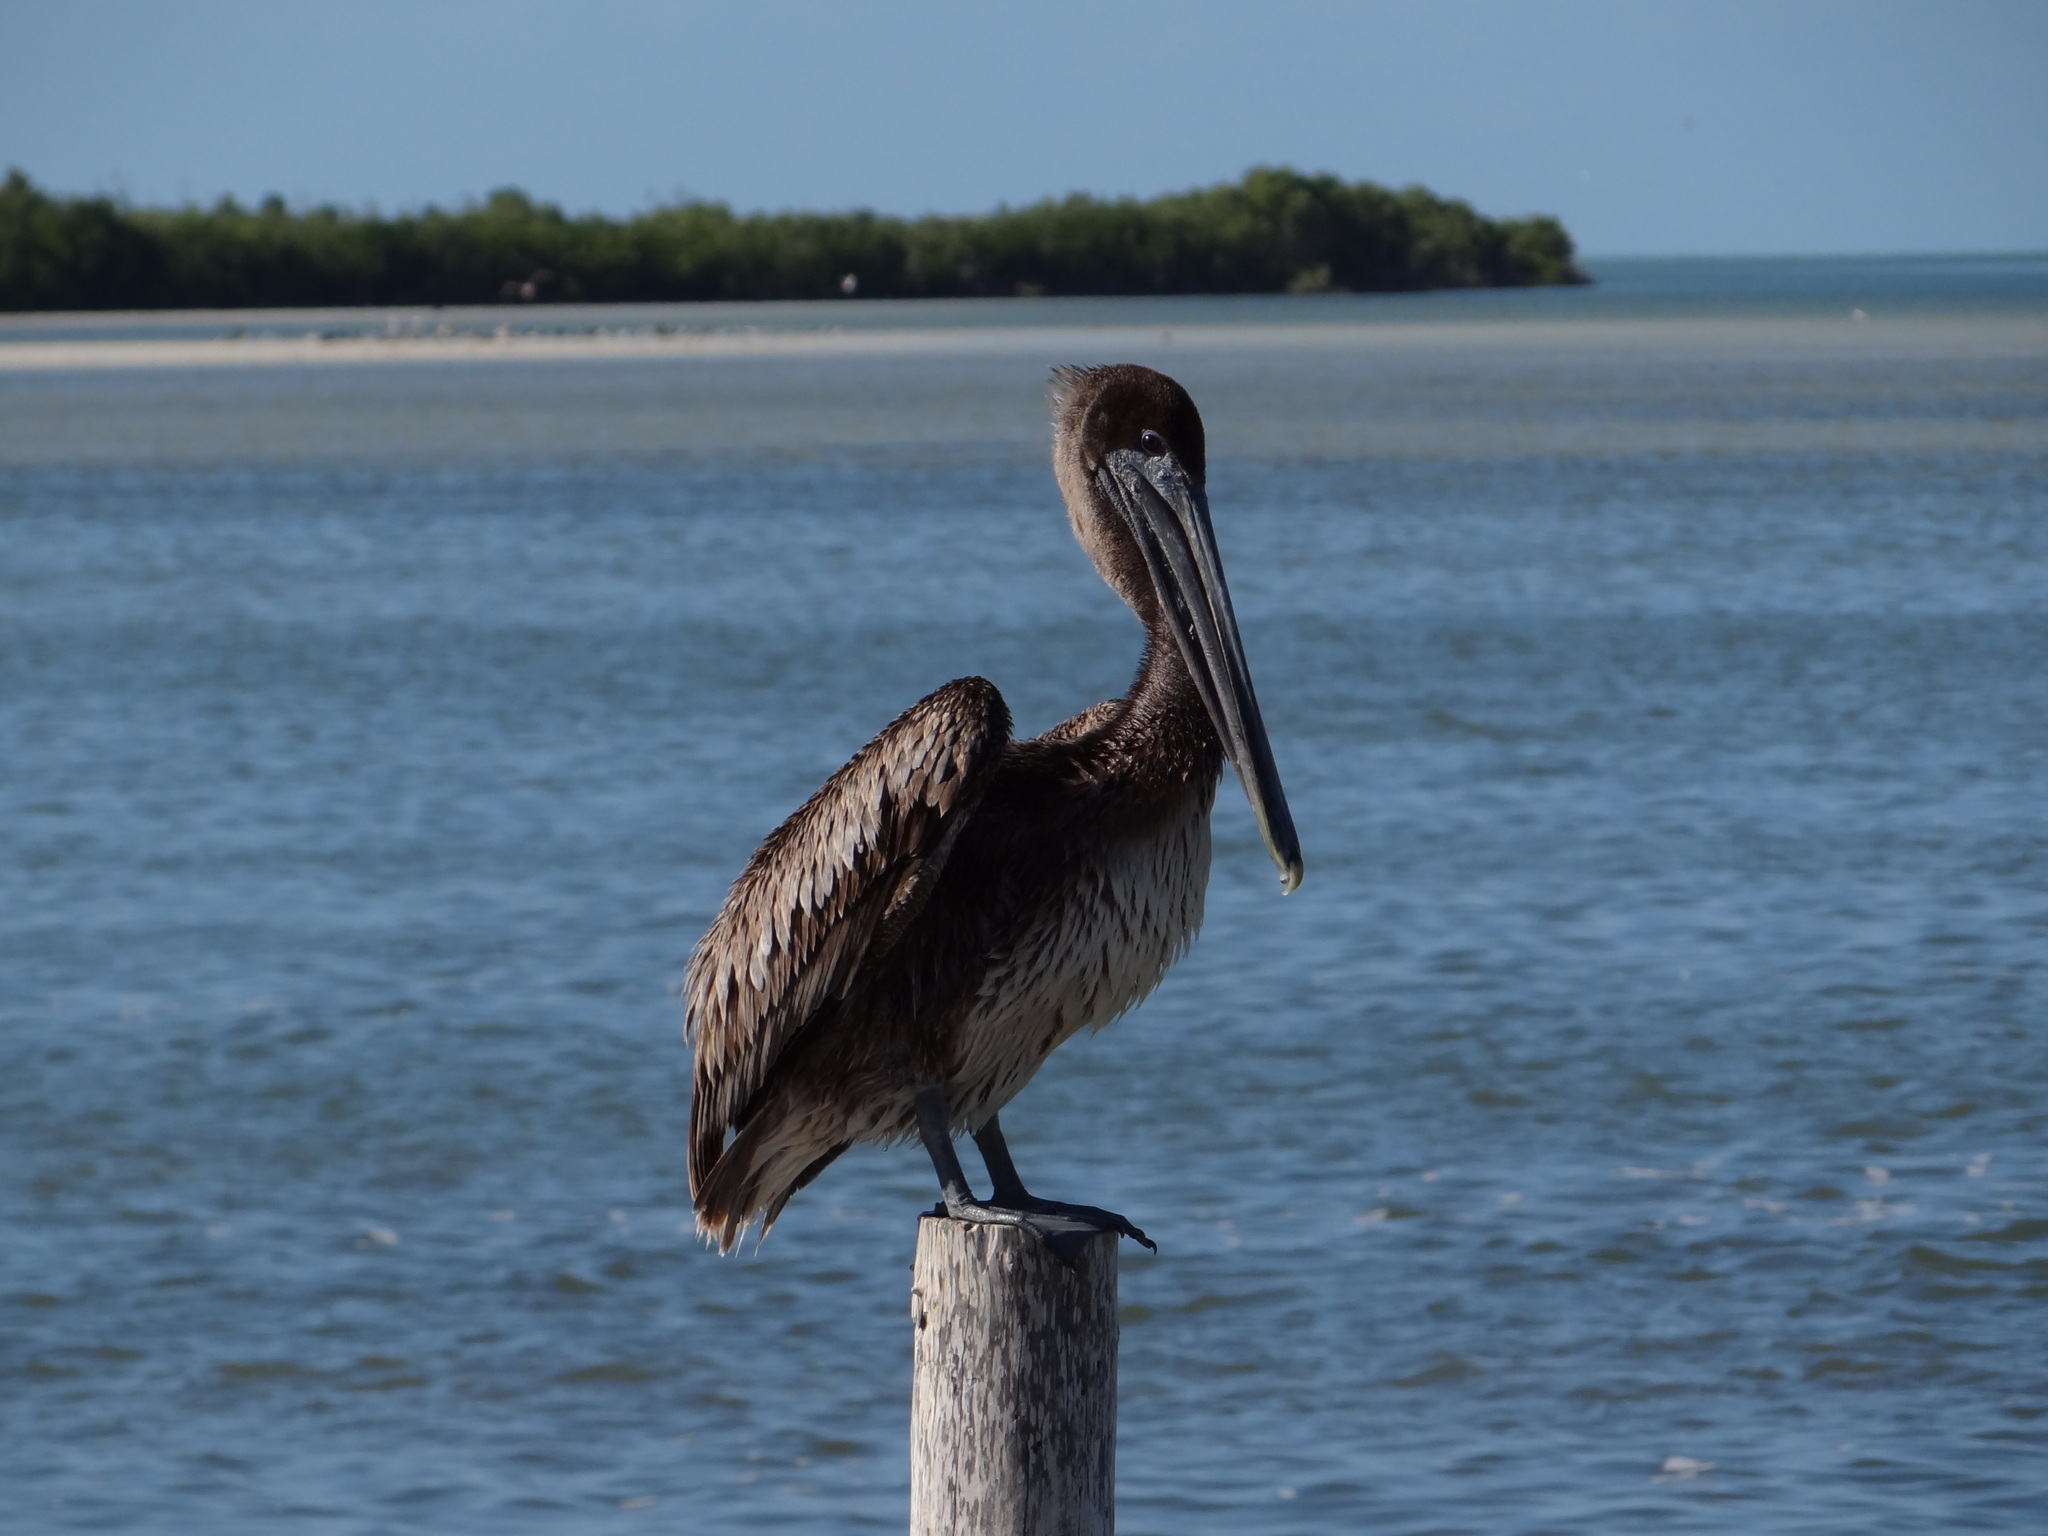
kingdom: Animalia
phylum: Chordata
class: Aves
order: Pelecaniformes
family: Pelecanidae
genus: Pelecanus
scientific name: Pelecanus occidentalis
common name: Brown pelican
